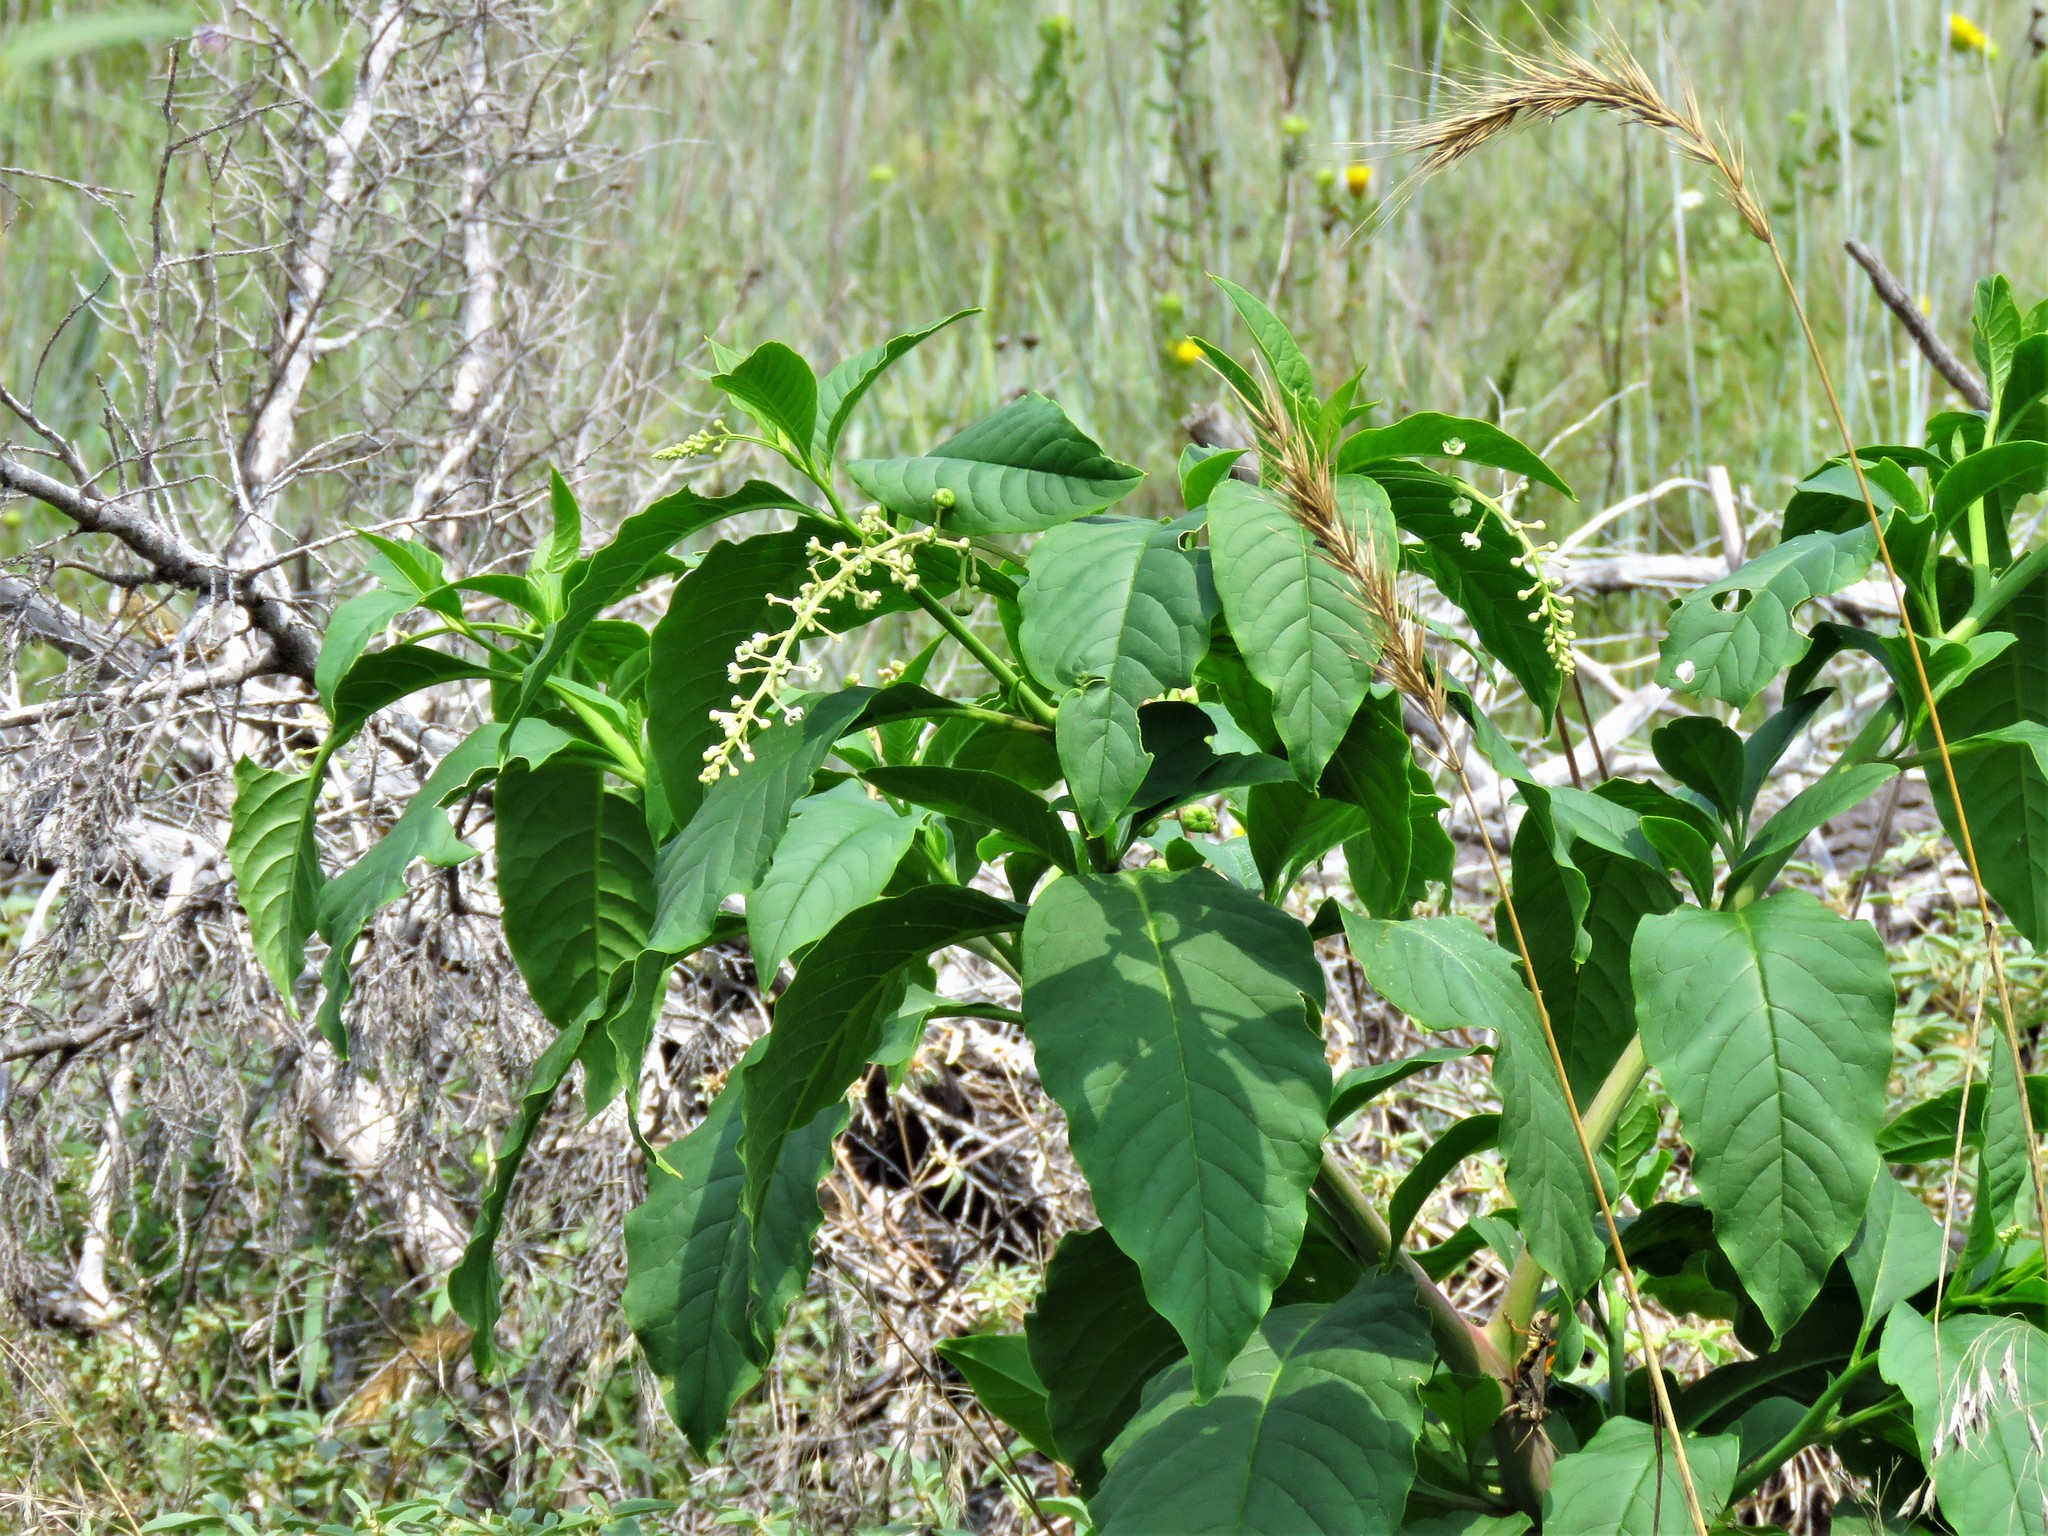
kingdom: Plantae
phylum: Tracheophyta
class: Magnoliopsida
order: Caryophyllales
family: Phytolaccaceae
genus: Phytolacca
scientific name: Phytolacca americana
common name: American pokeweed
